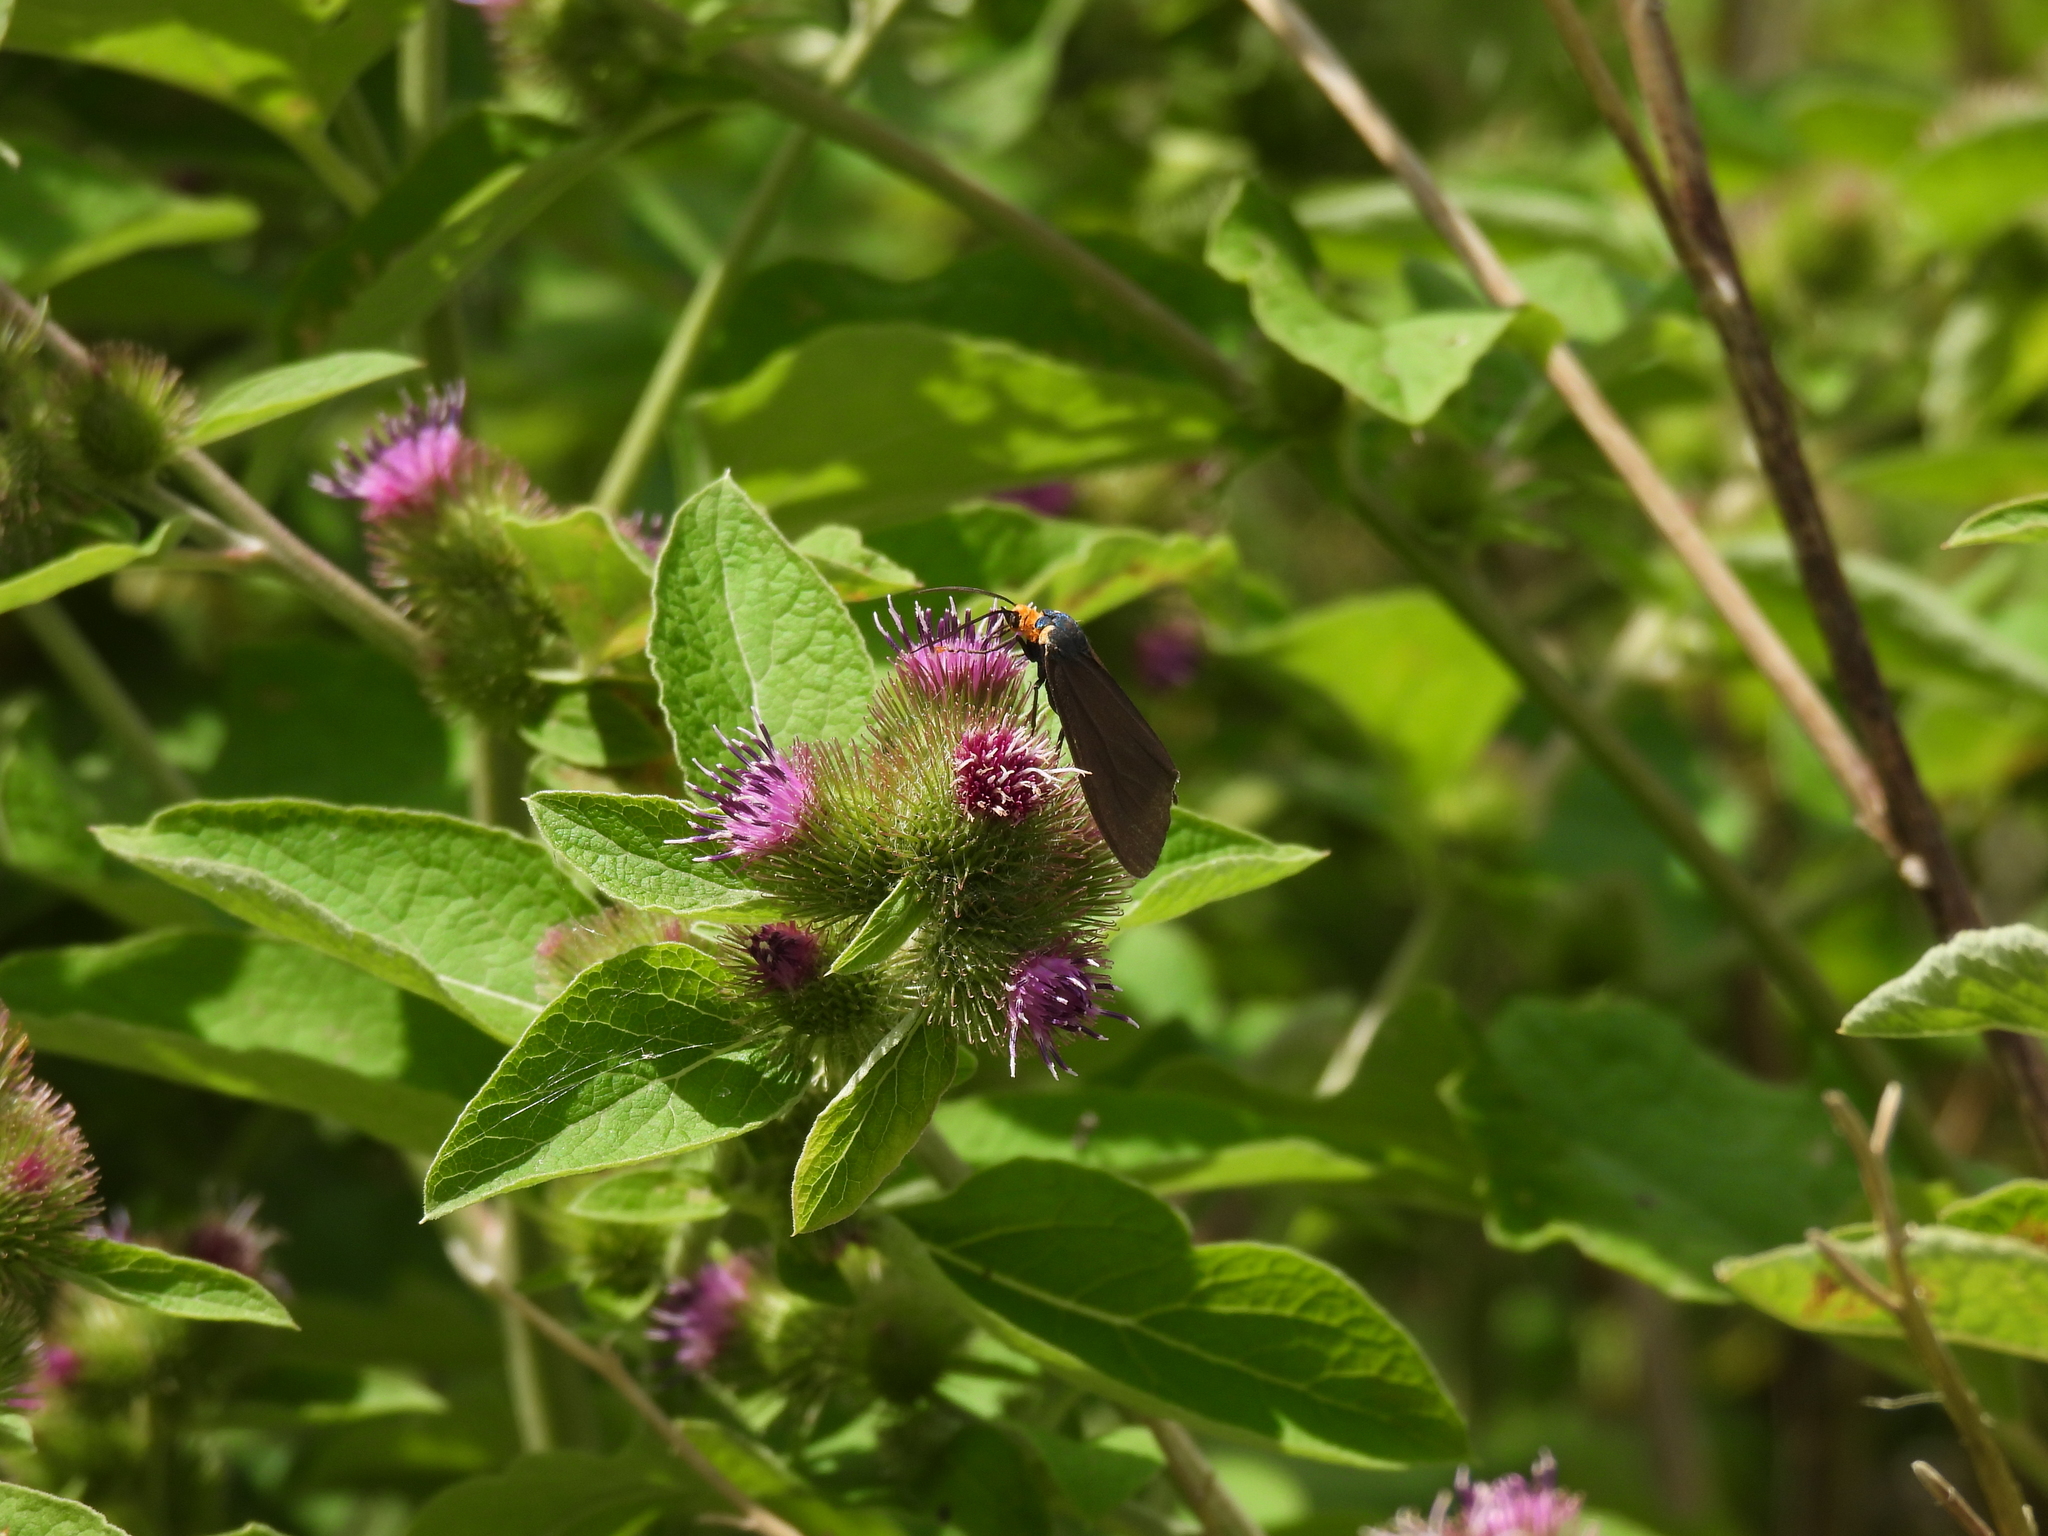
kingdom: Animalia
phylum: Arthropoda
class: Insecta
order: Lepidoptera
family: Erebidae
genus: Ctenucha
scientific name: Ctenucha virginica
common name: Virginia ctenucha moth
